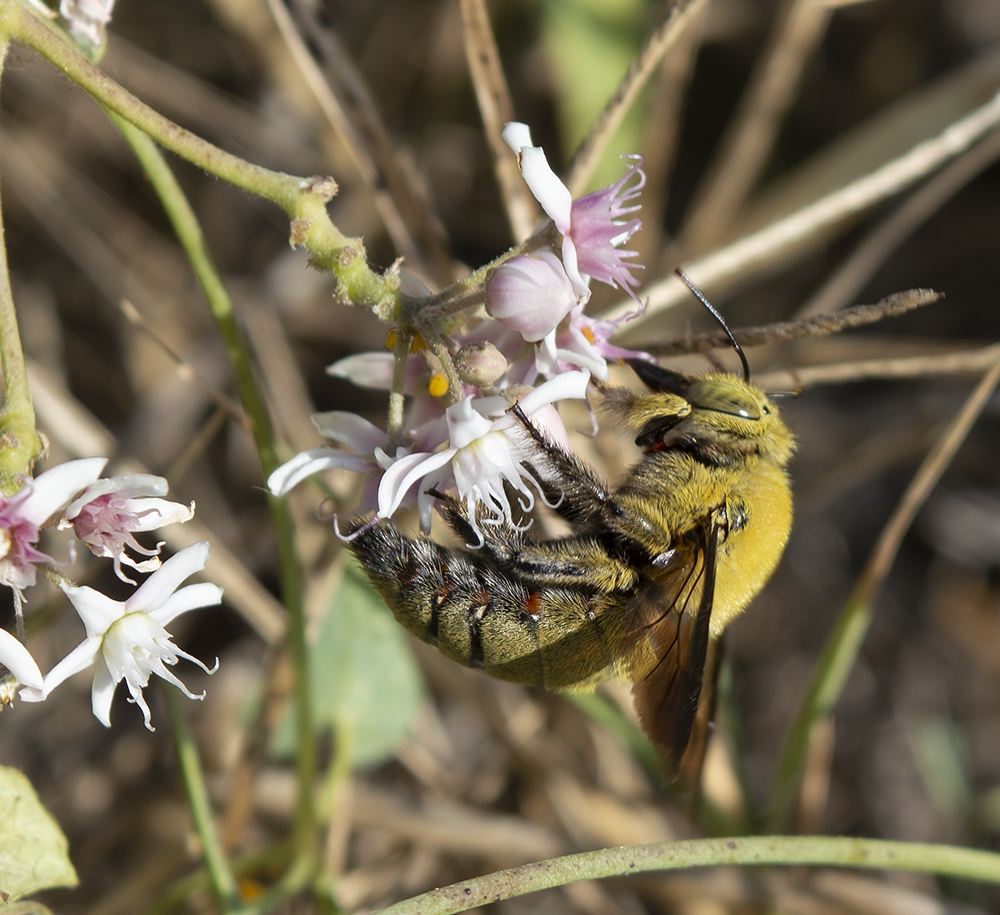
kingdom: Animalia
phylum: Arthropoda
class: Insecta
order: Hymenoptera
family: Apidae
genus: Xylocopa
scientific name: Xylocopa pubescens
